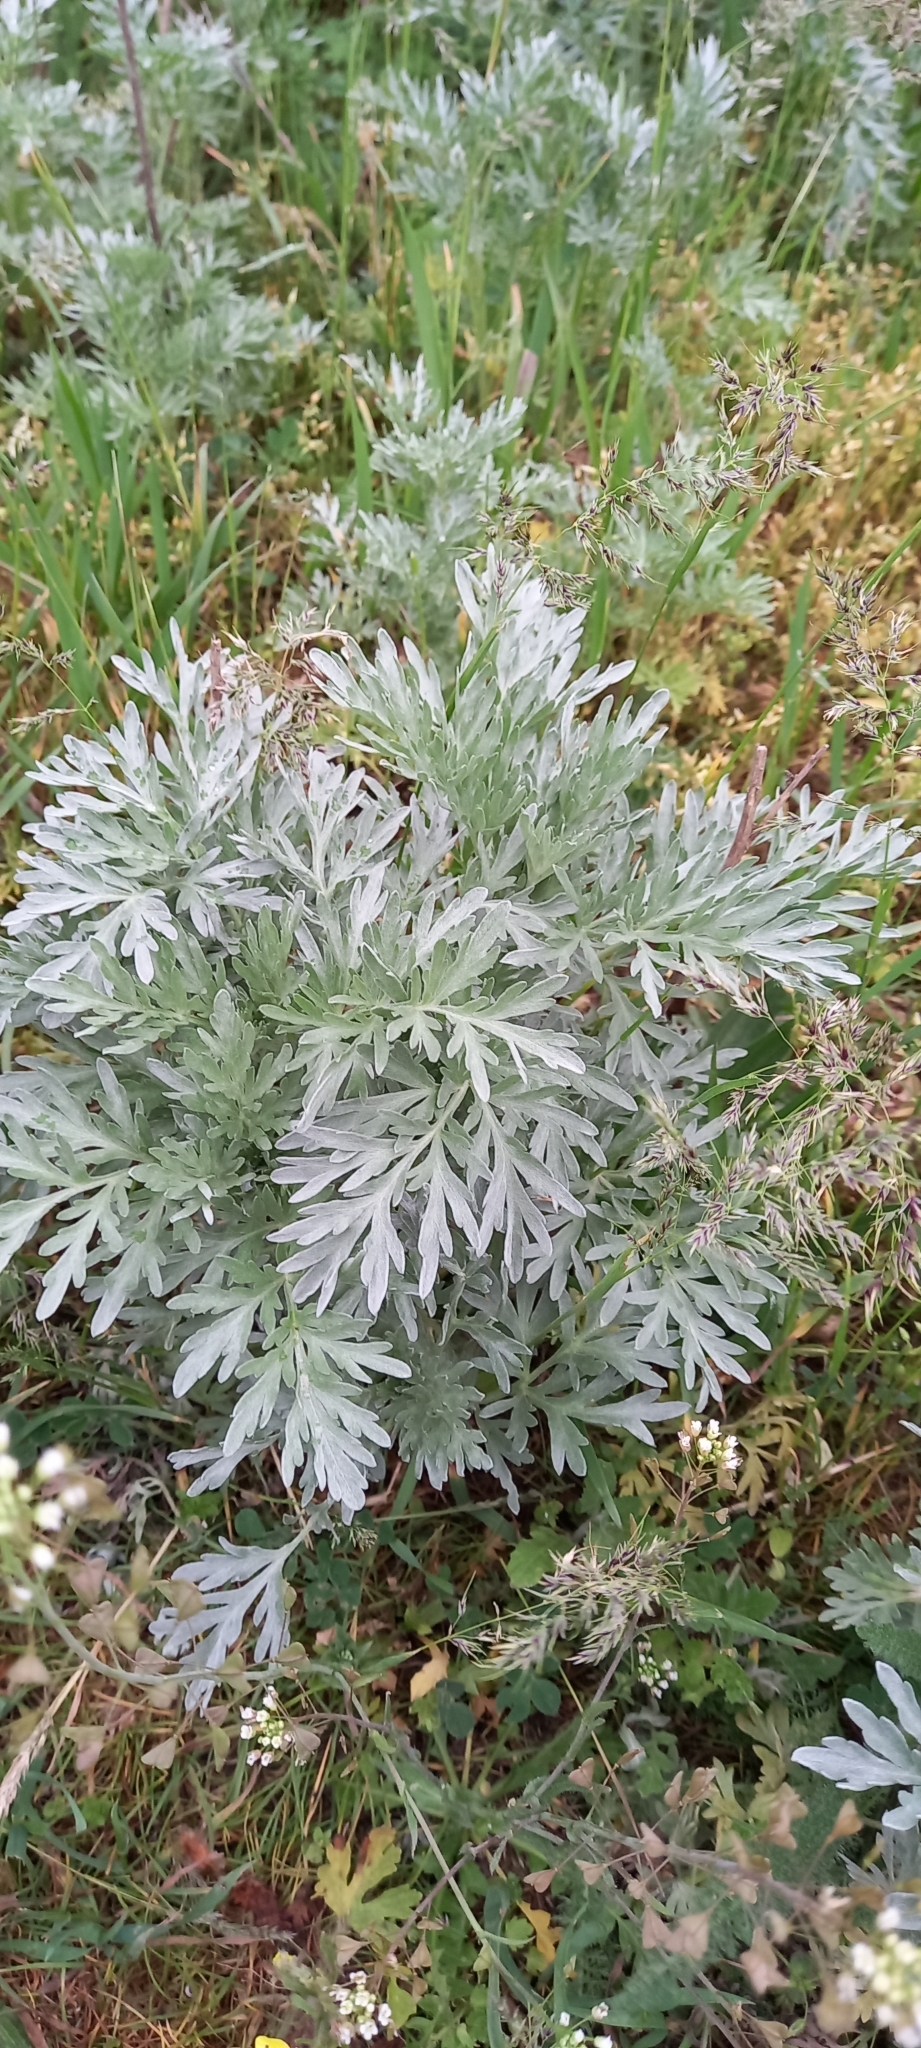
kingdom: Plantae
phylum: Tracheophyta
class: Magnoliopsida
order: Asterales
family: Asteraceae
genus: Artemisia
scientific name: Artemisia absinthium
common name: Wormwood
